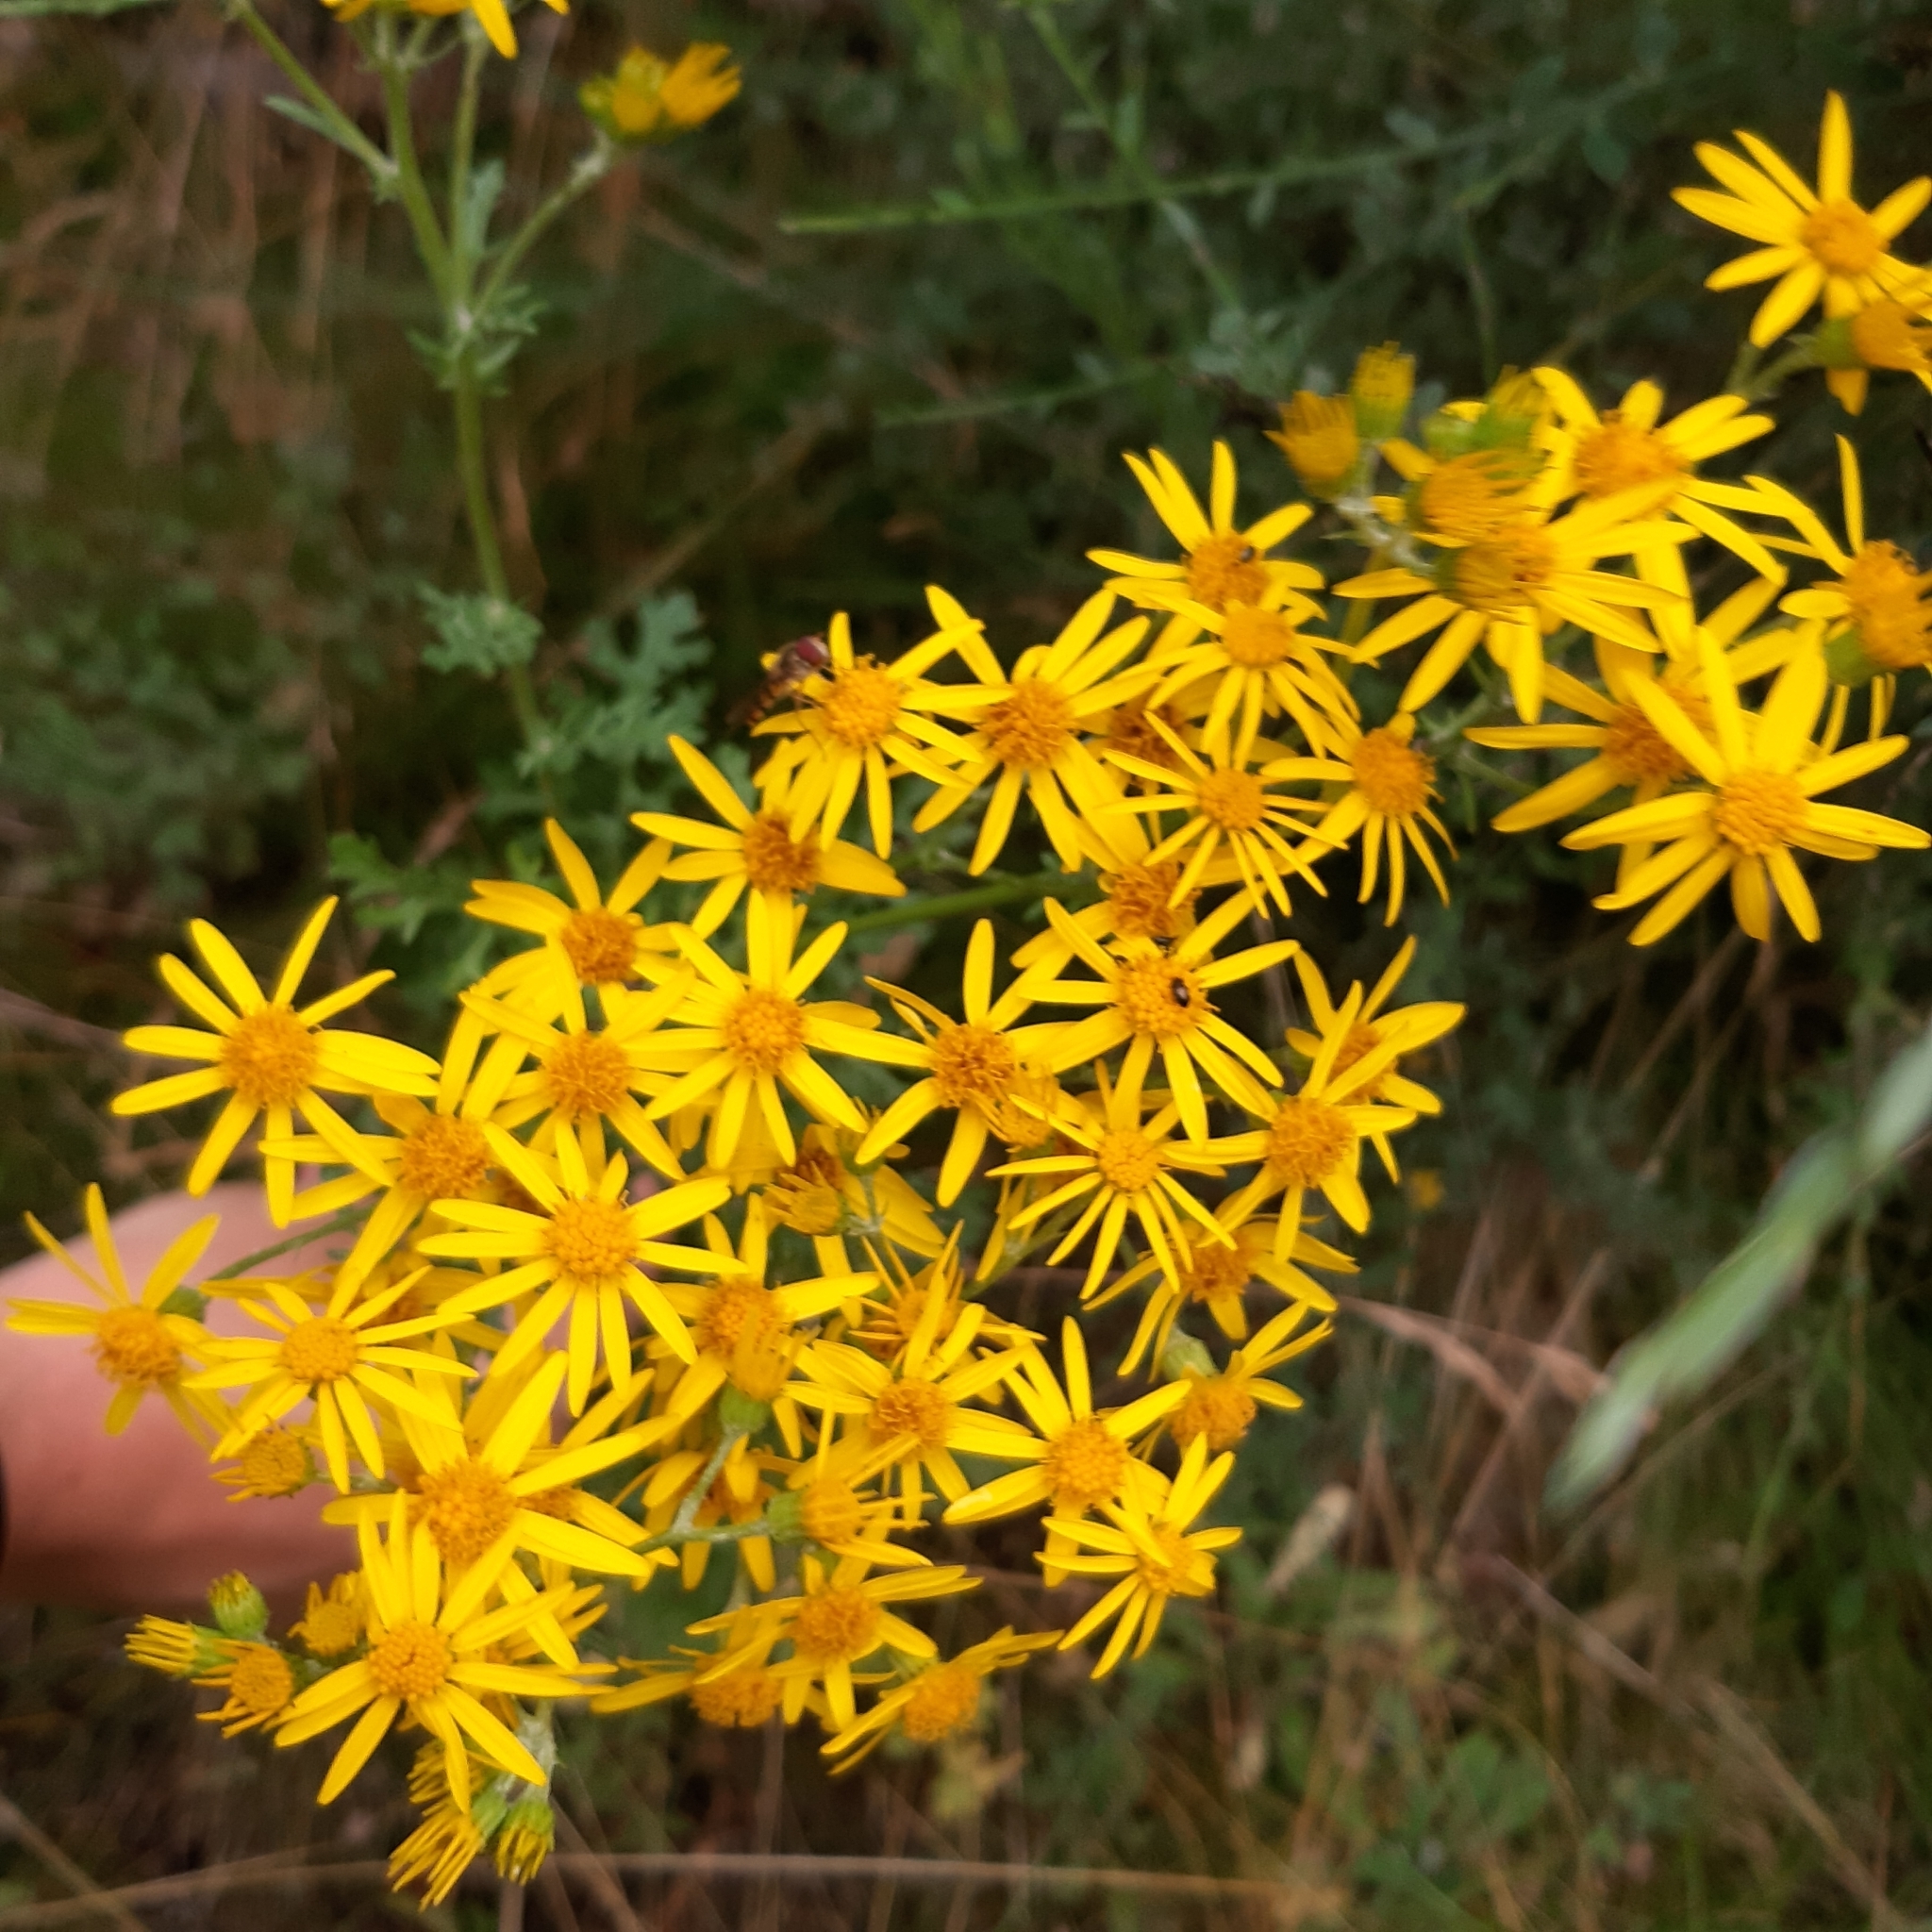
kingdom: Plantae
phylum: Tracheophyta
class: Magnoliopsida
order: Asterales
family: Asteraceae
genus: Jacobaea
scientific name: Jacobaea vulgaris
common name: Stinking willie
